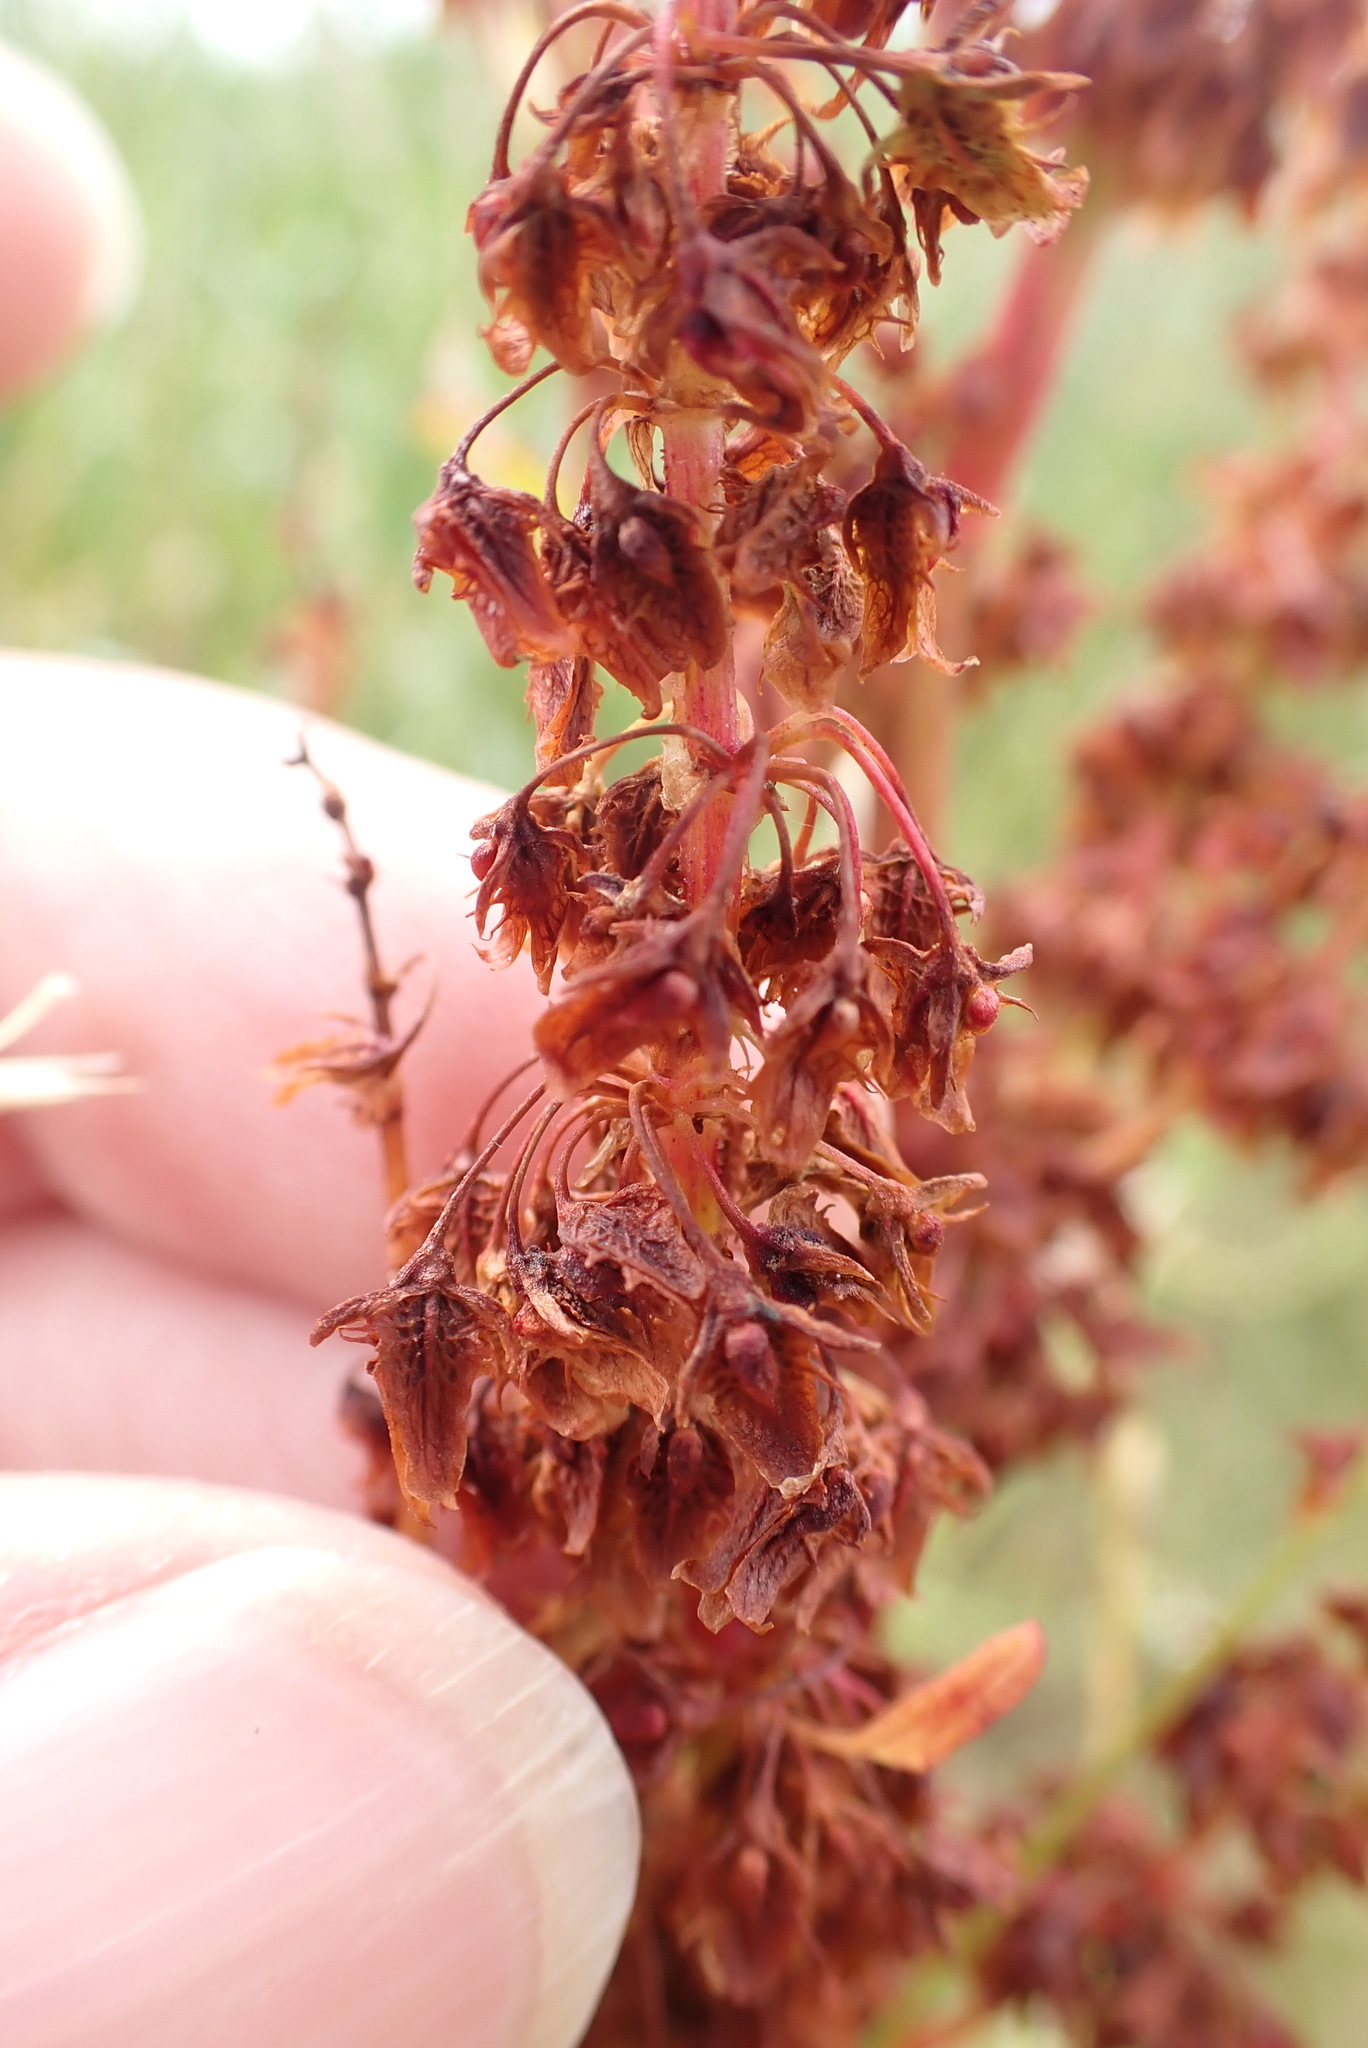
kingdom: Plantae
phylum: Tracheophyta
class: Magnoliopsida
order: Caryophyllales
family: Polygonaceae
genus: Rumex
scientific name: Rumex obtusifolius
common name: Bitter dock
